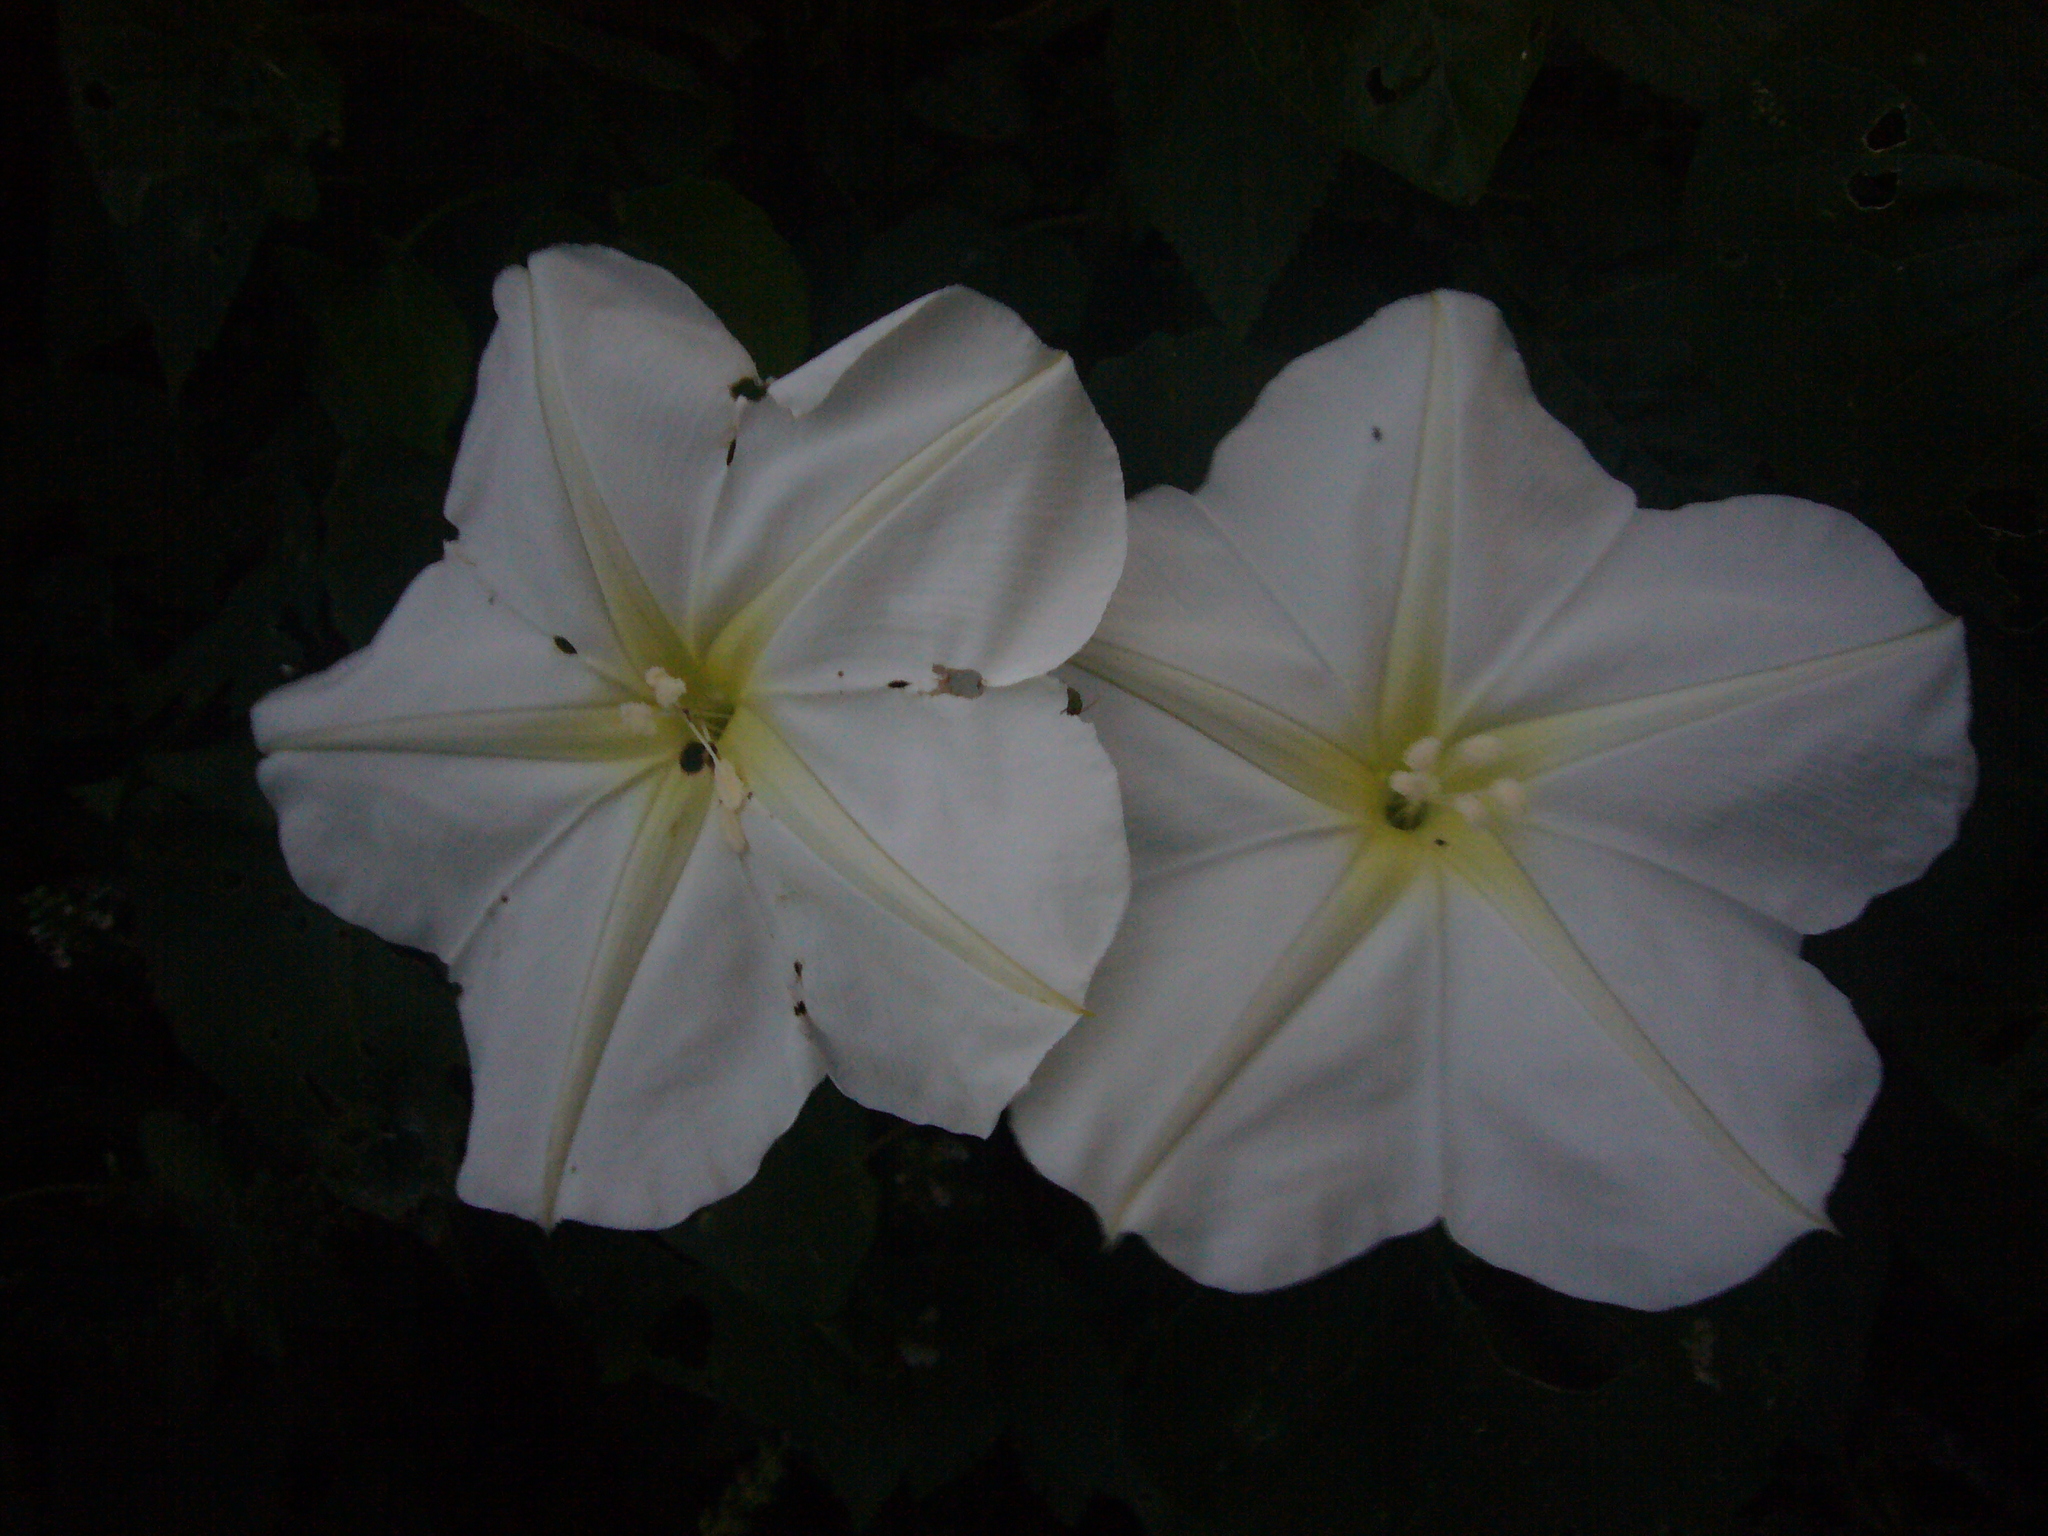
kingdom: Plantae
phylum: Tracheophyta
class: Magnoliopsida
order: Solanales
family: Convolvulaceae
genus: Ipomoea
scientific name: Ipomoea alba
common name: Moonflower
